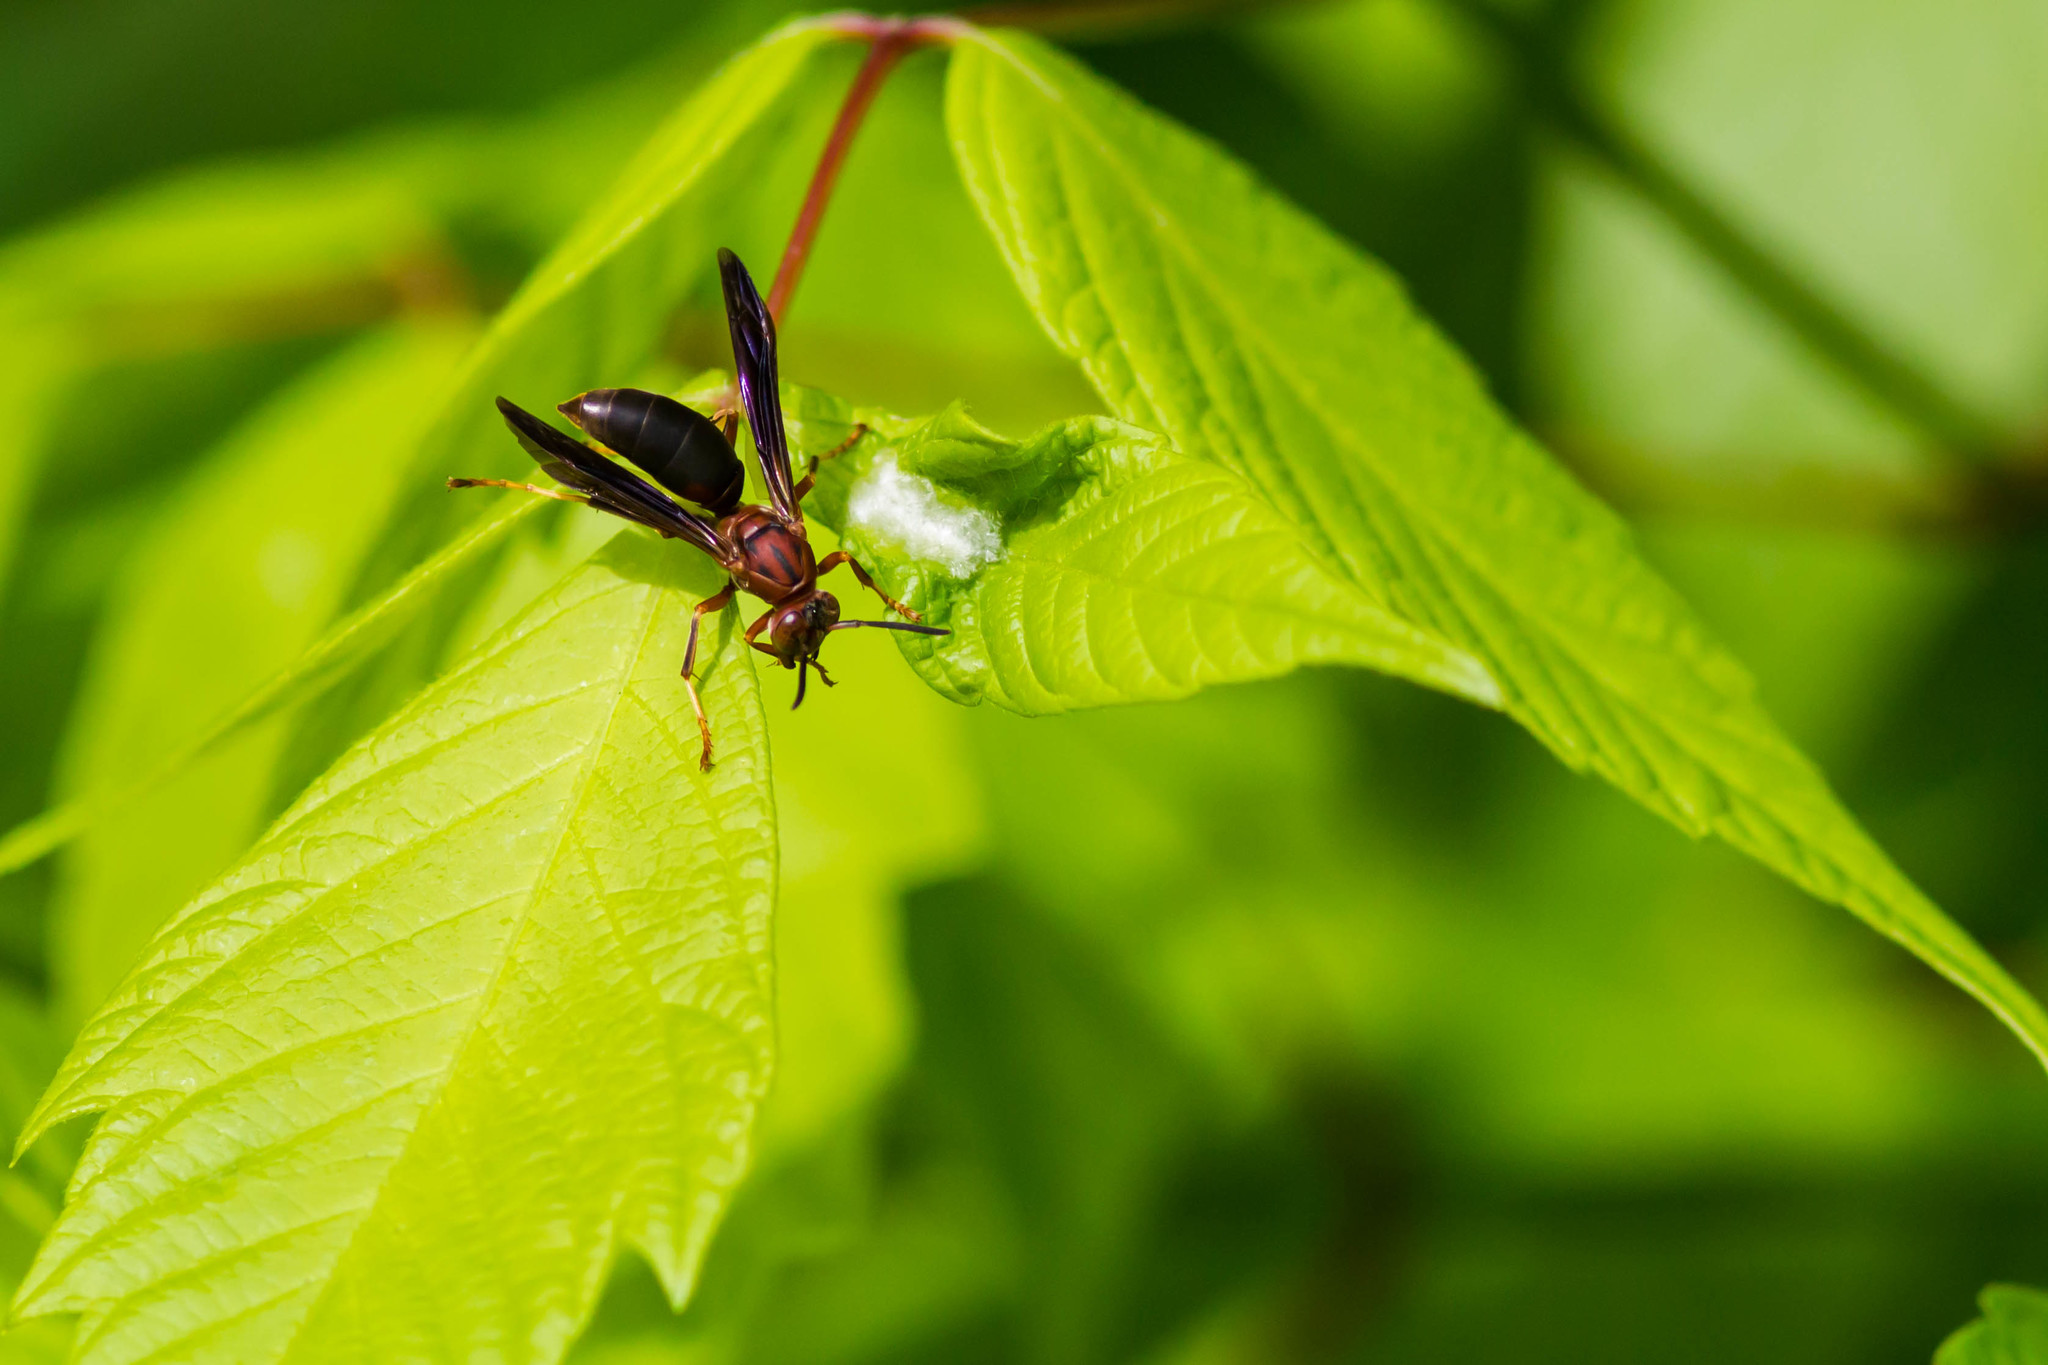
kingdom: Animalia
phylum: Arthropoda
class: Insecta
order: Hymenoptera
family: Eumenidae
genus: Polistes
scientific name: Polistes metricus
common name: Metric paper wasp
